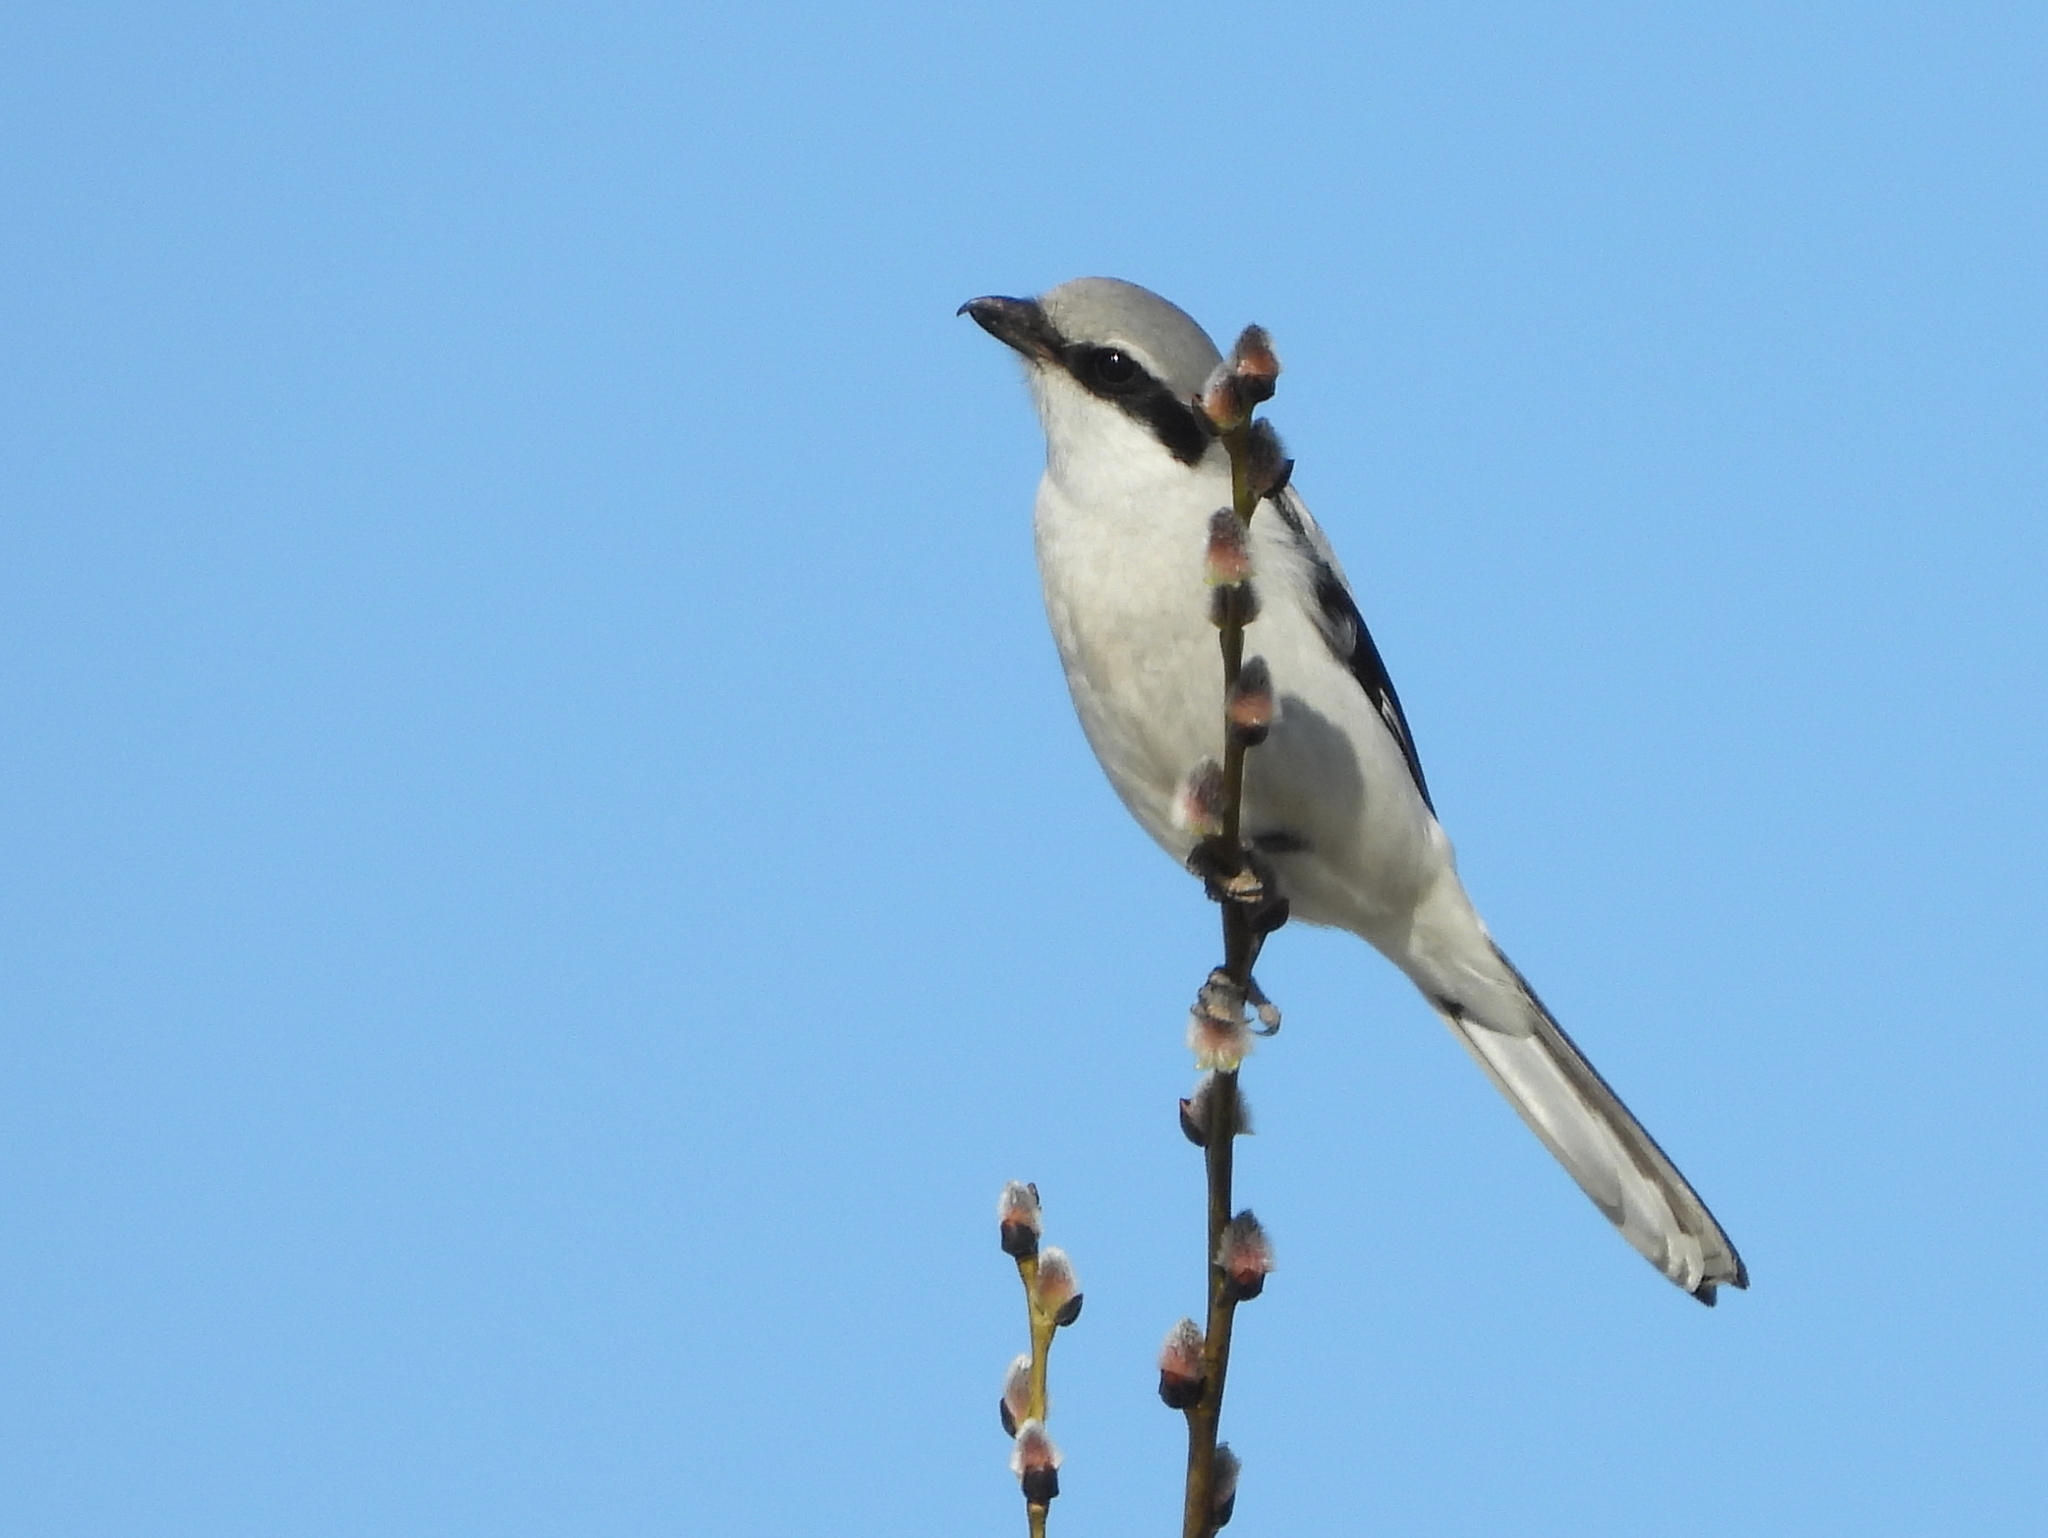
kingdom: Animalia
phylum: Chordata
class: Aves
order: Passeriformes
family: Laniidae
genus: Lanius
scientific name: Lanius excubitor
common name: Great grey shrike
